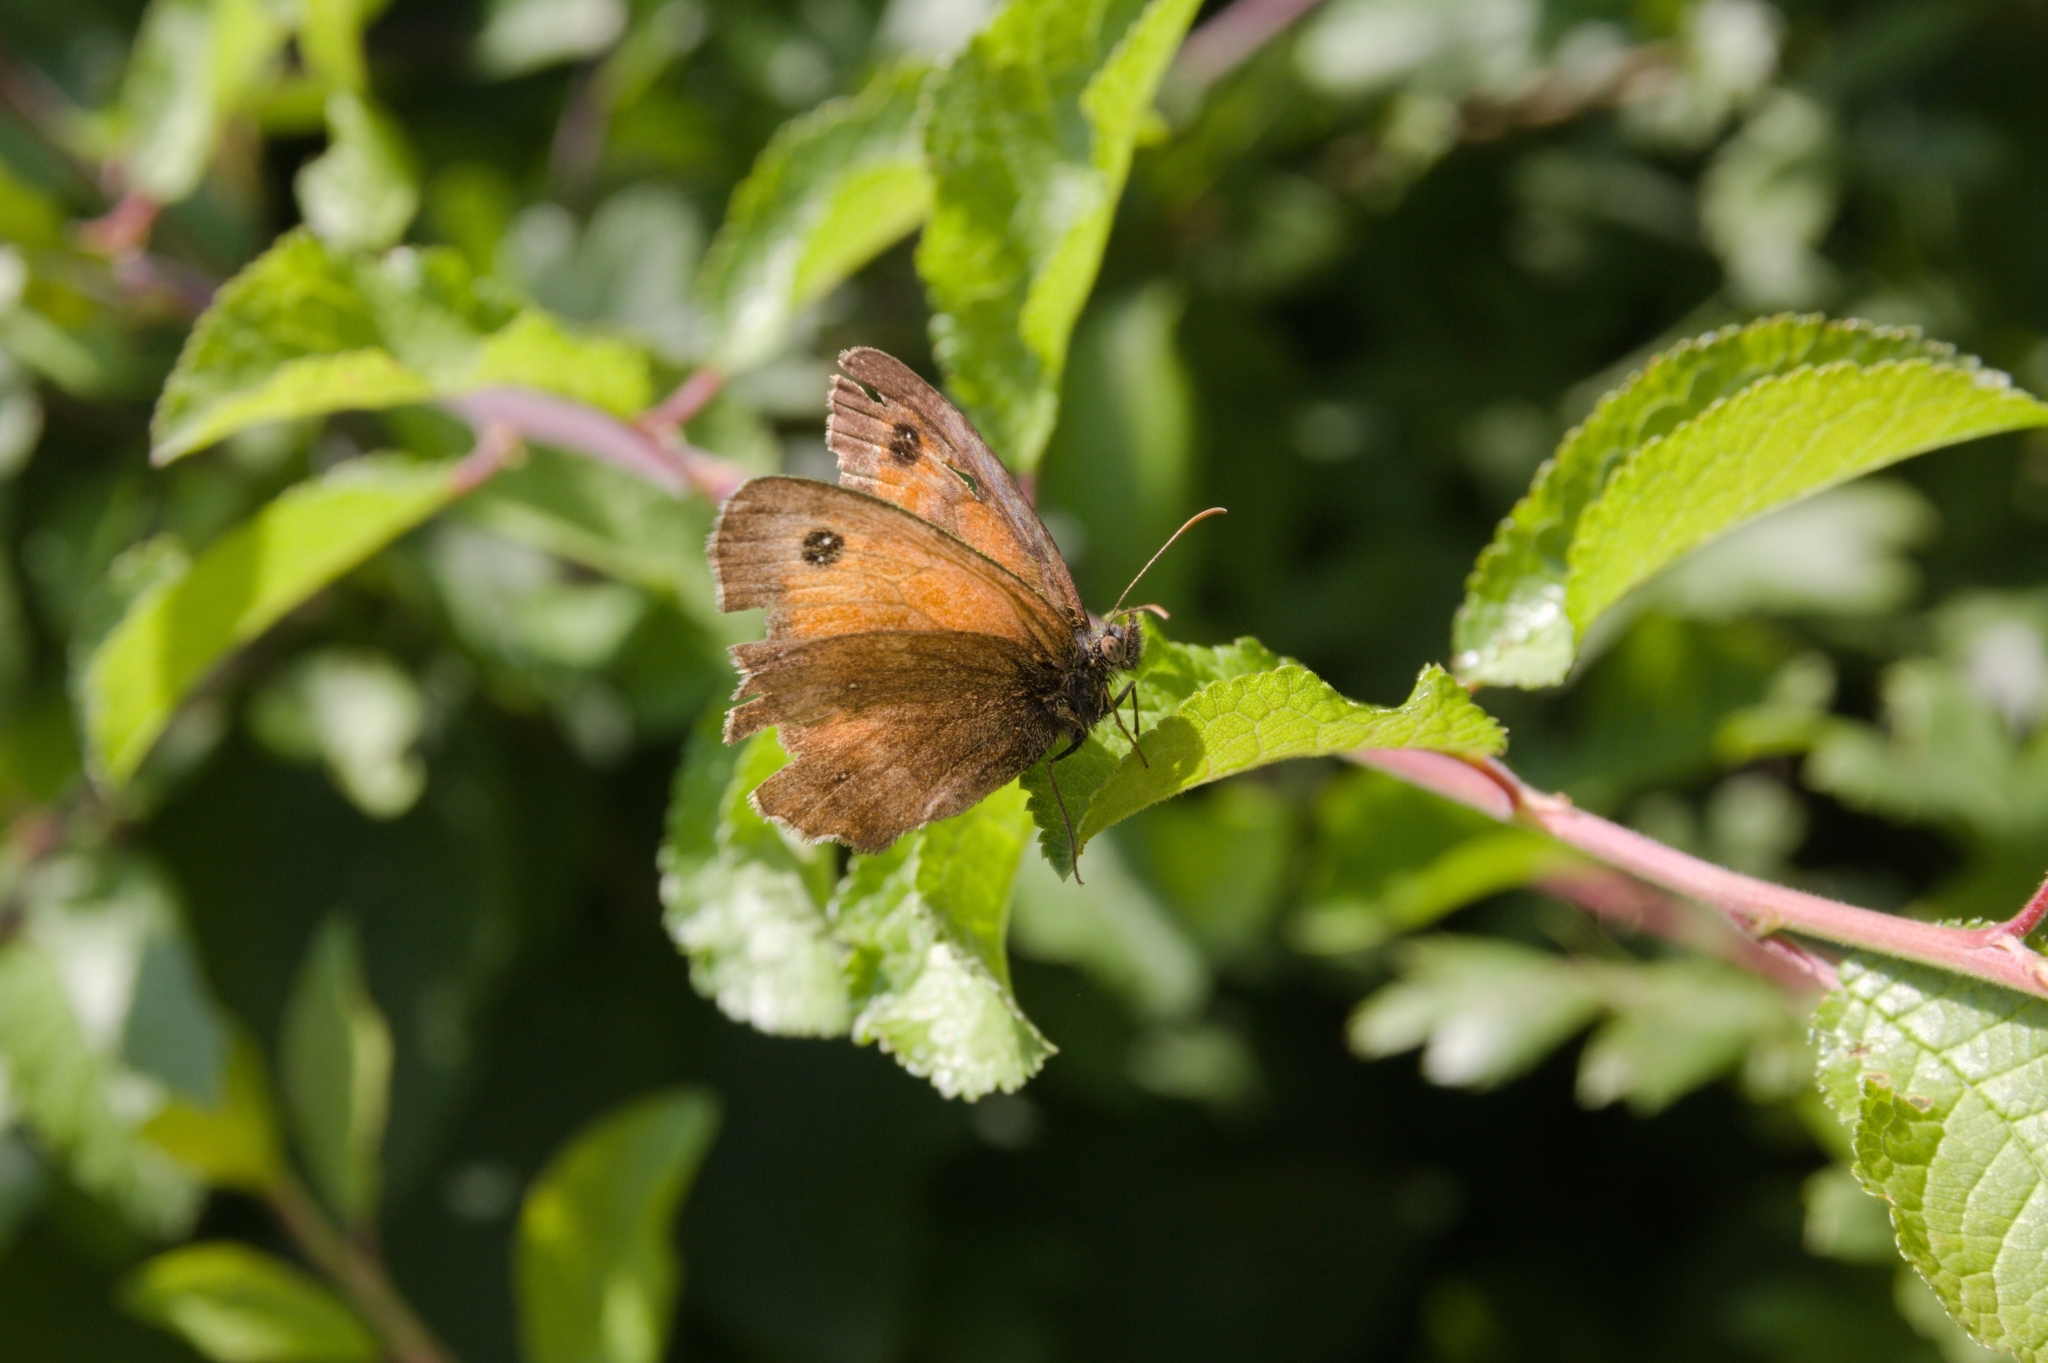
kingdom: Animalia
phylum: Arthropoda
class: Insecta
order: Lepidoptera
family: Nymphalidae
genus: Pyronia
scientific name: Pyronia tithonus
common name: Gatekeeper
